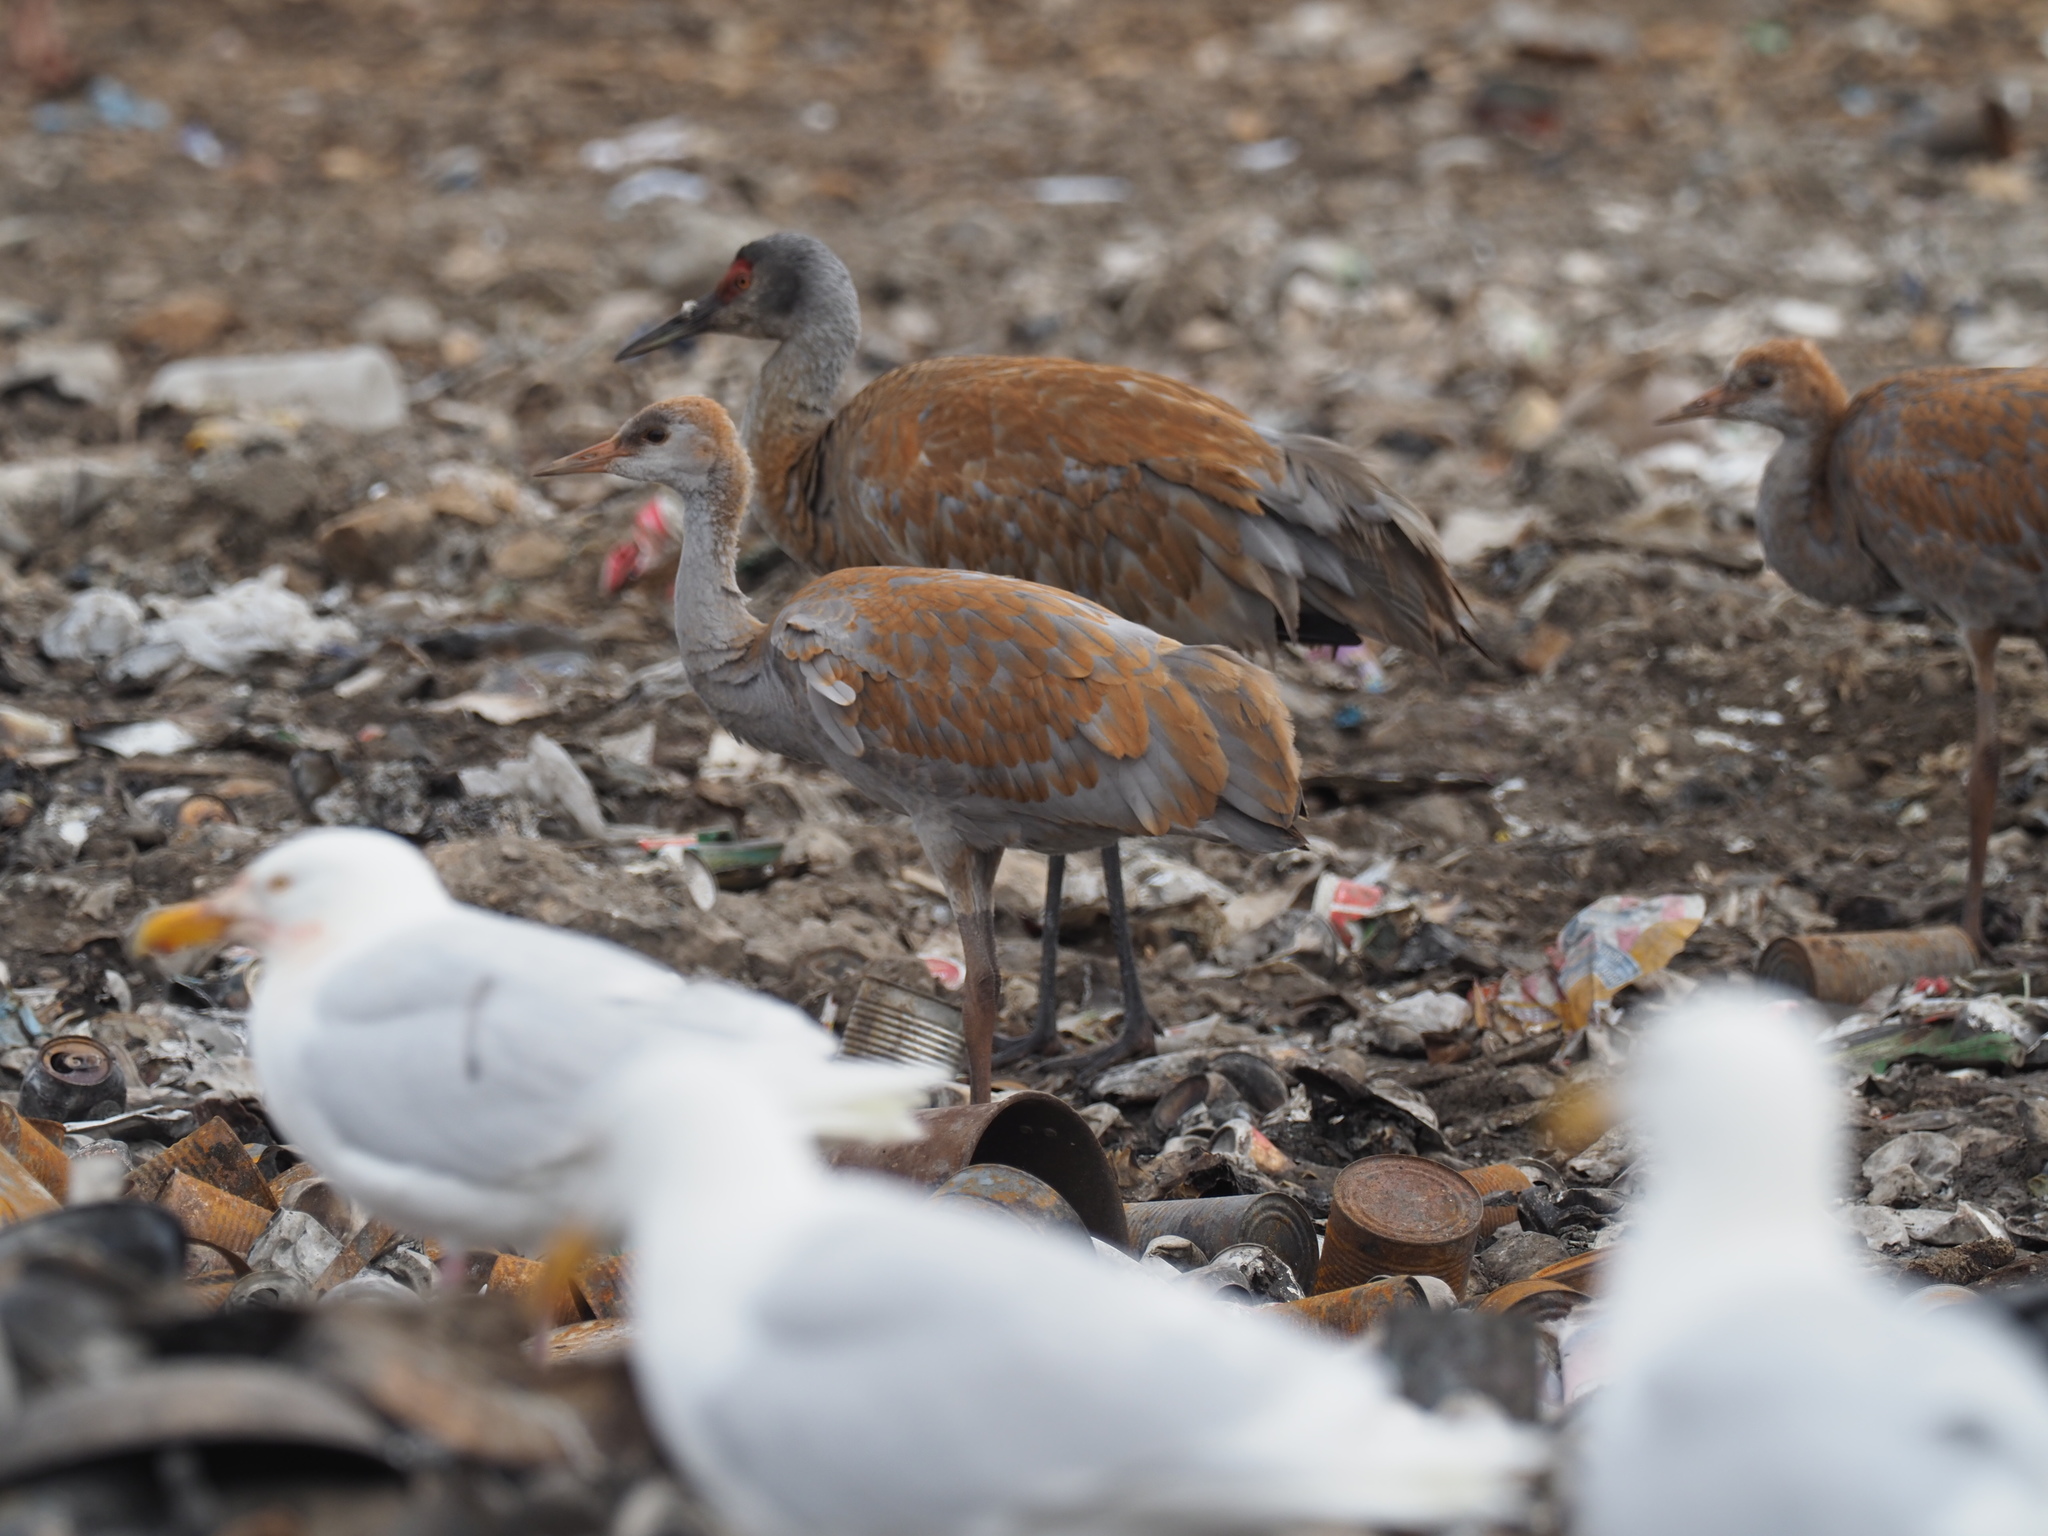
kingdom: Animalia
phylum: Chordata
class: Aves
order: Gruiformes
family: Gruidae
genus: Grus
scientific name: Grus canadensis
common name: Sandhill crane
